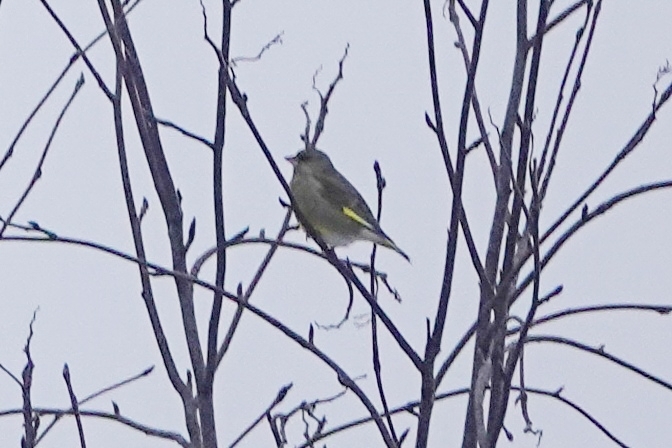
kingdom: Plantae
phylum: Tracheophyta
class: Liliopsida
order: Poales
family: Poaceae
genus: Chloris
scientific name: Chloris chloris
